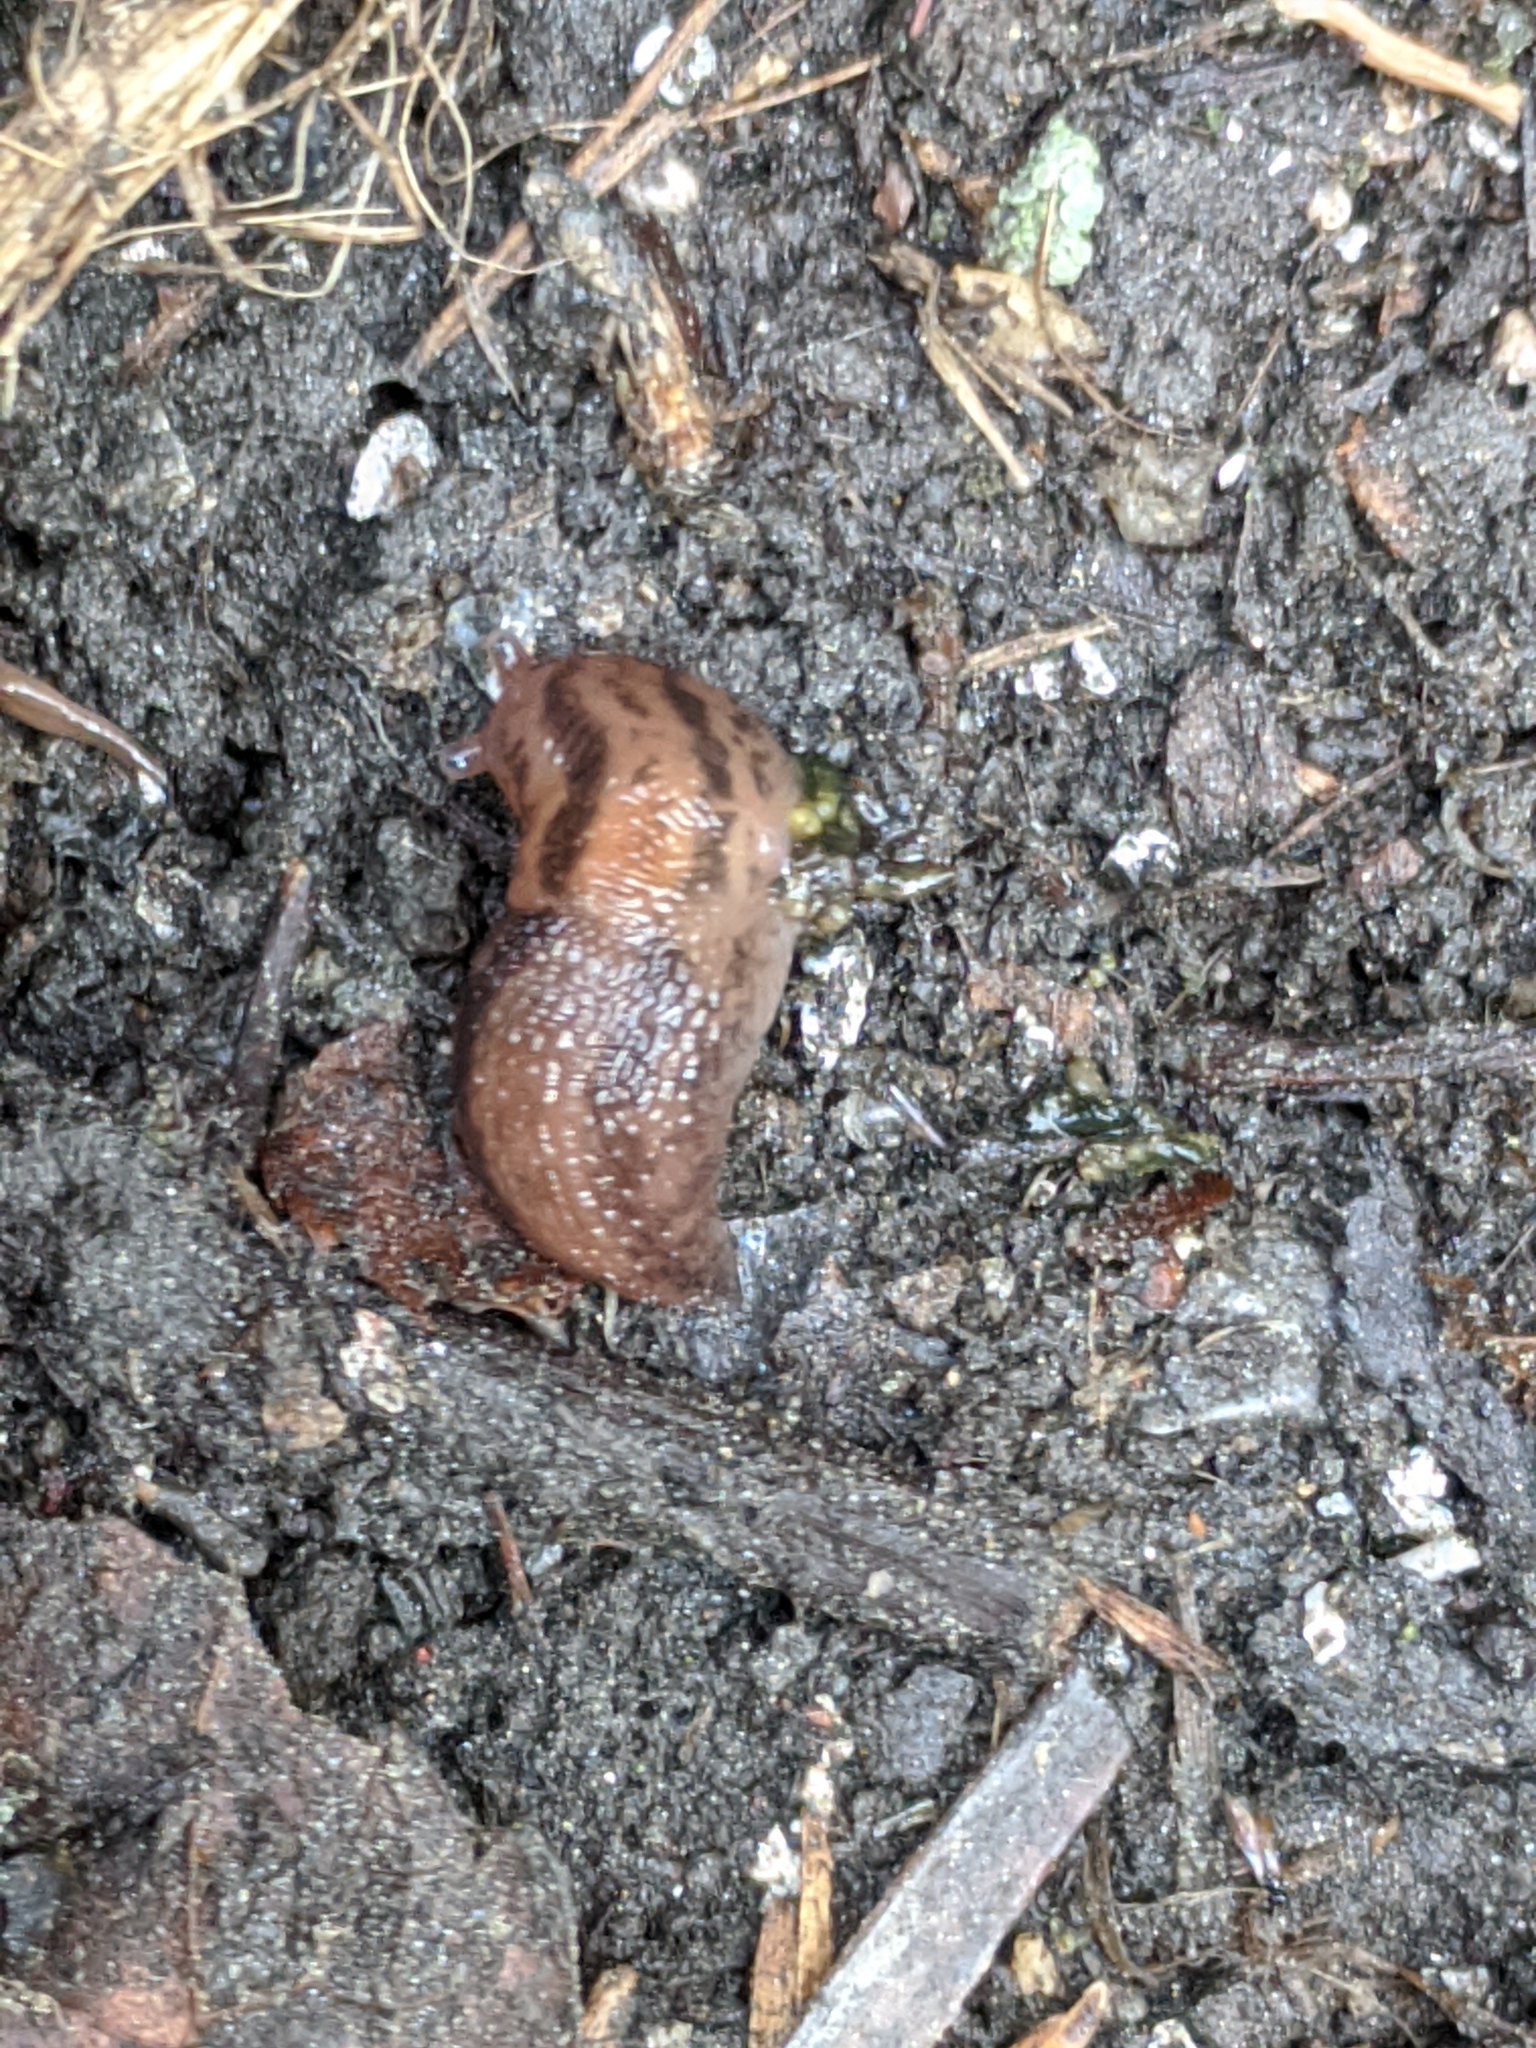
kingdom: Animalia
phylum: Mollusca
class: Gastropoda
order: Stylommatophora
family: Limacidae
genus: Ambigolimax
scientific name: Ambigolimax
